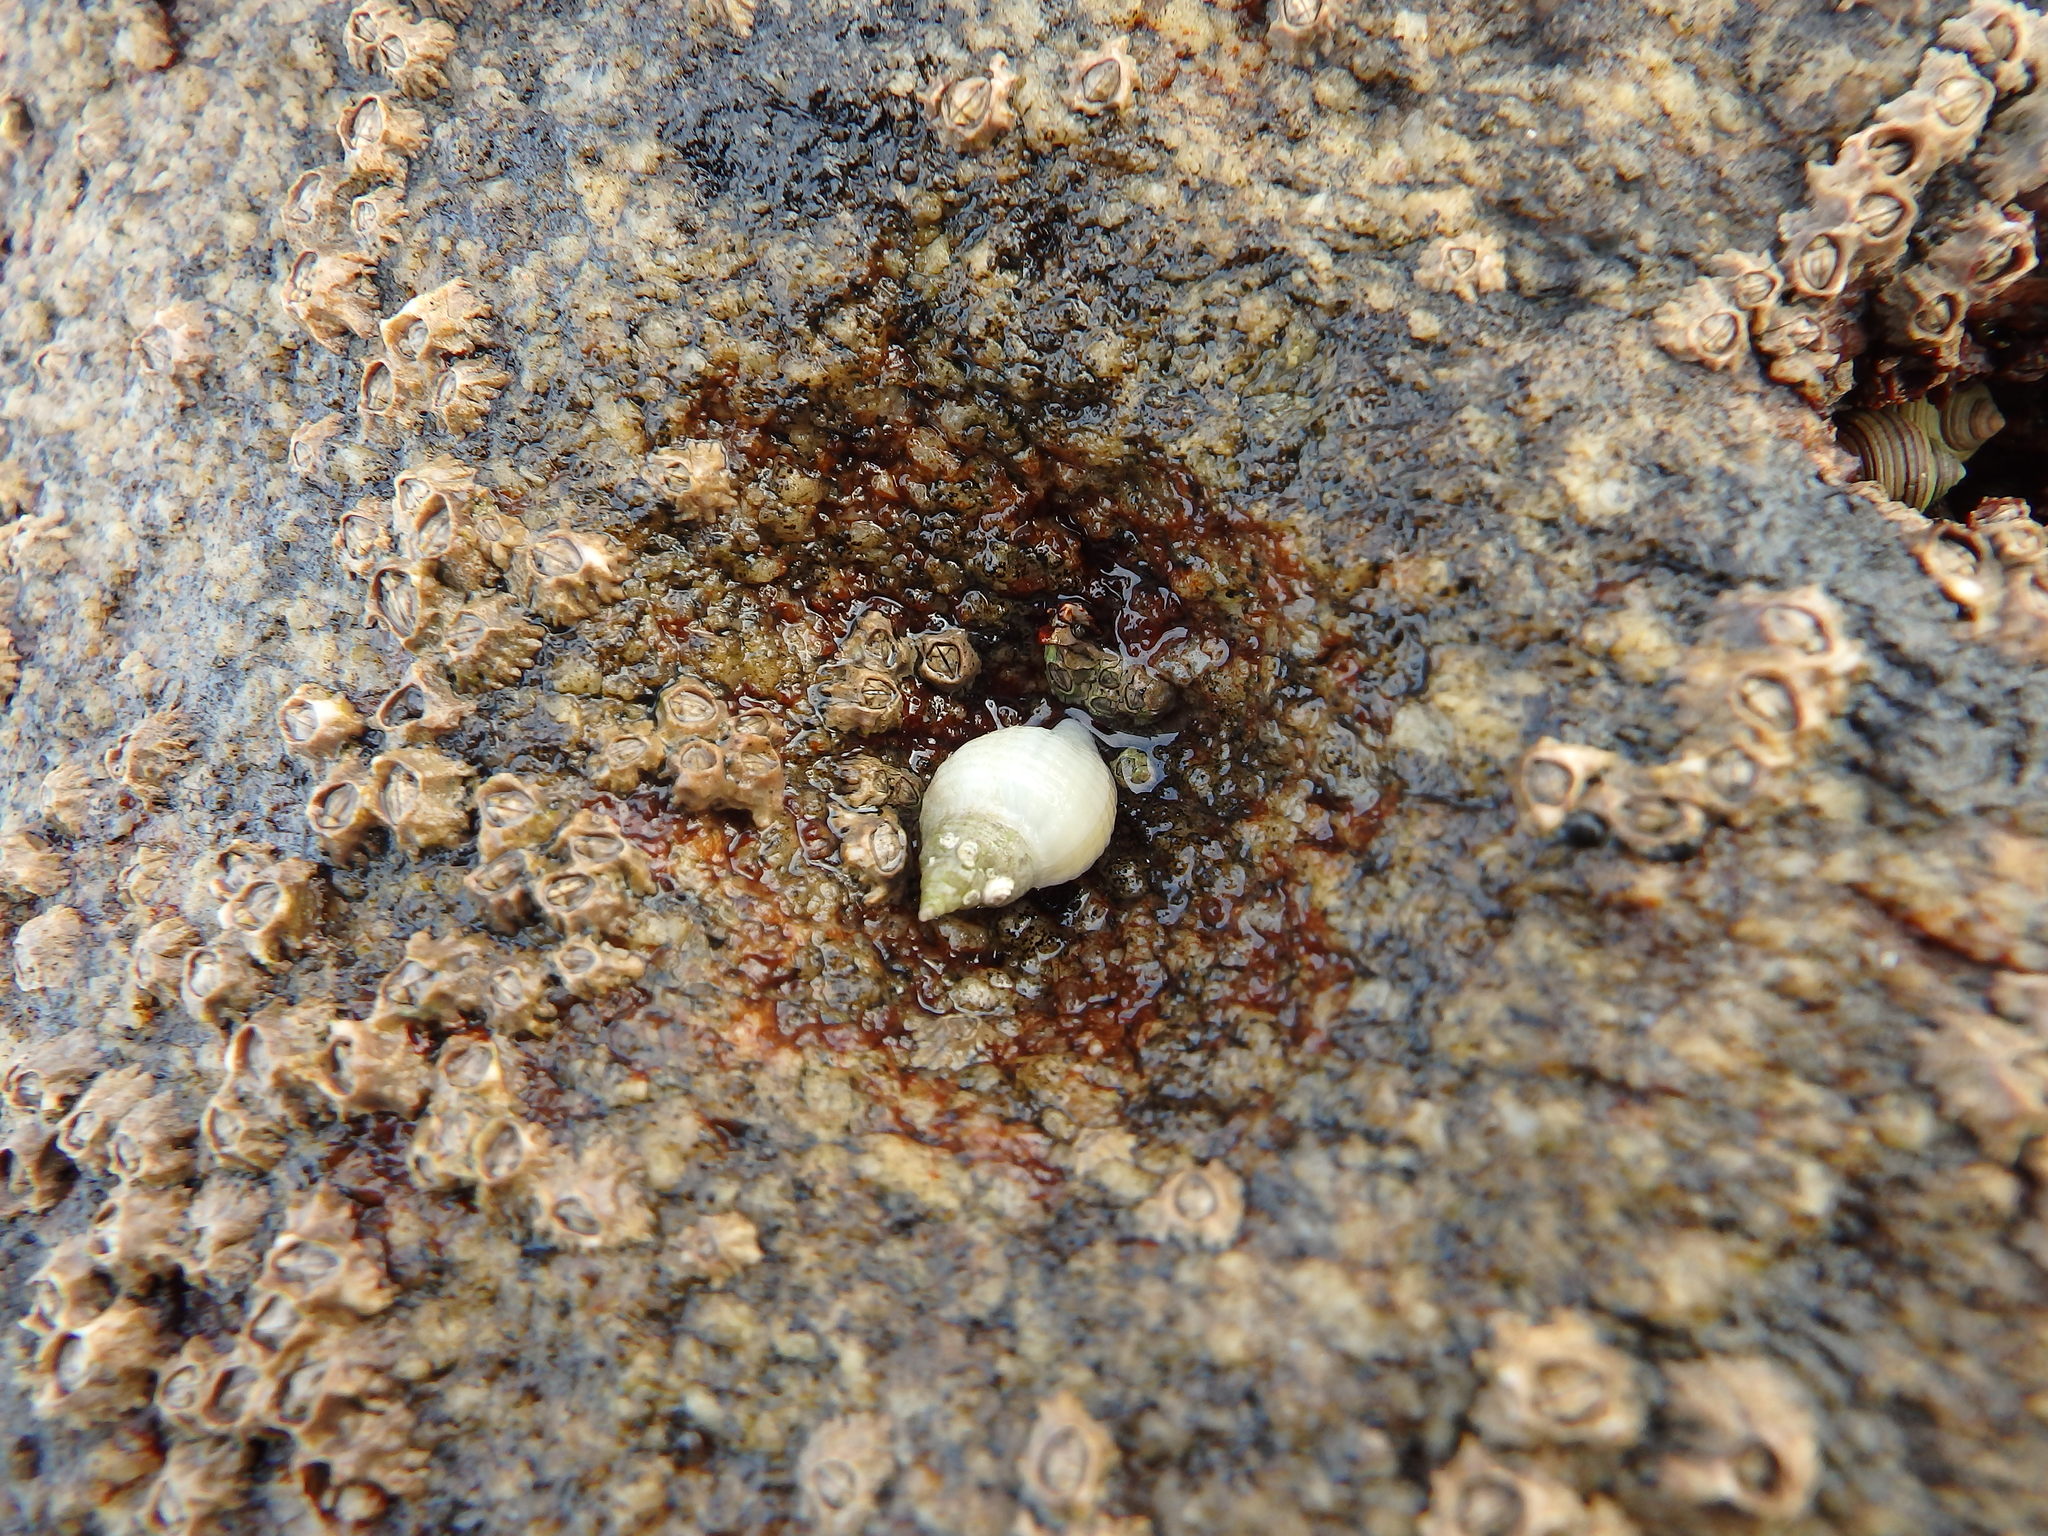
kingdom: Animalia
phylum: Mollusca
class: Gastropoda
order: Neogastropoda
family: Muricidae
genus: Nucella
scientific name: Nucella lapillus
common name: Dog whelk
